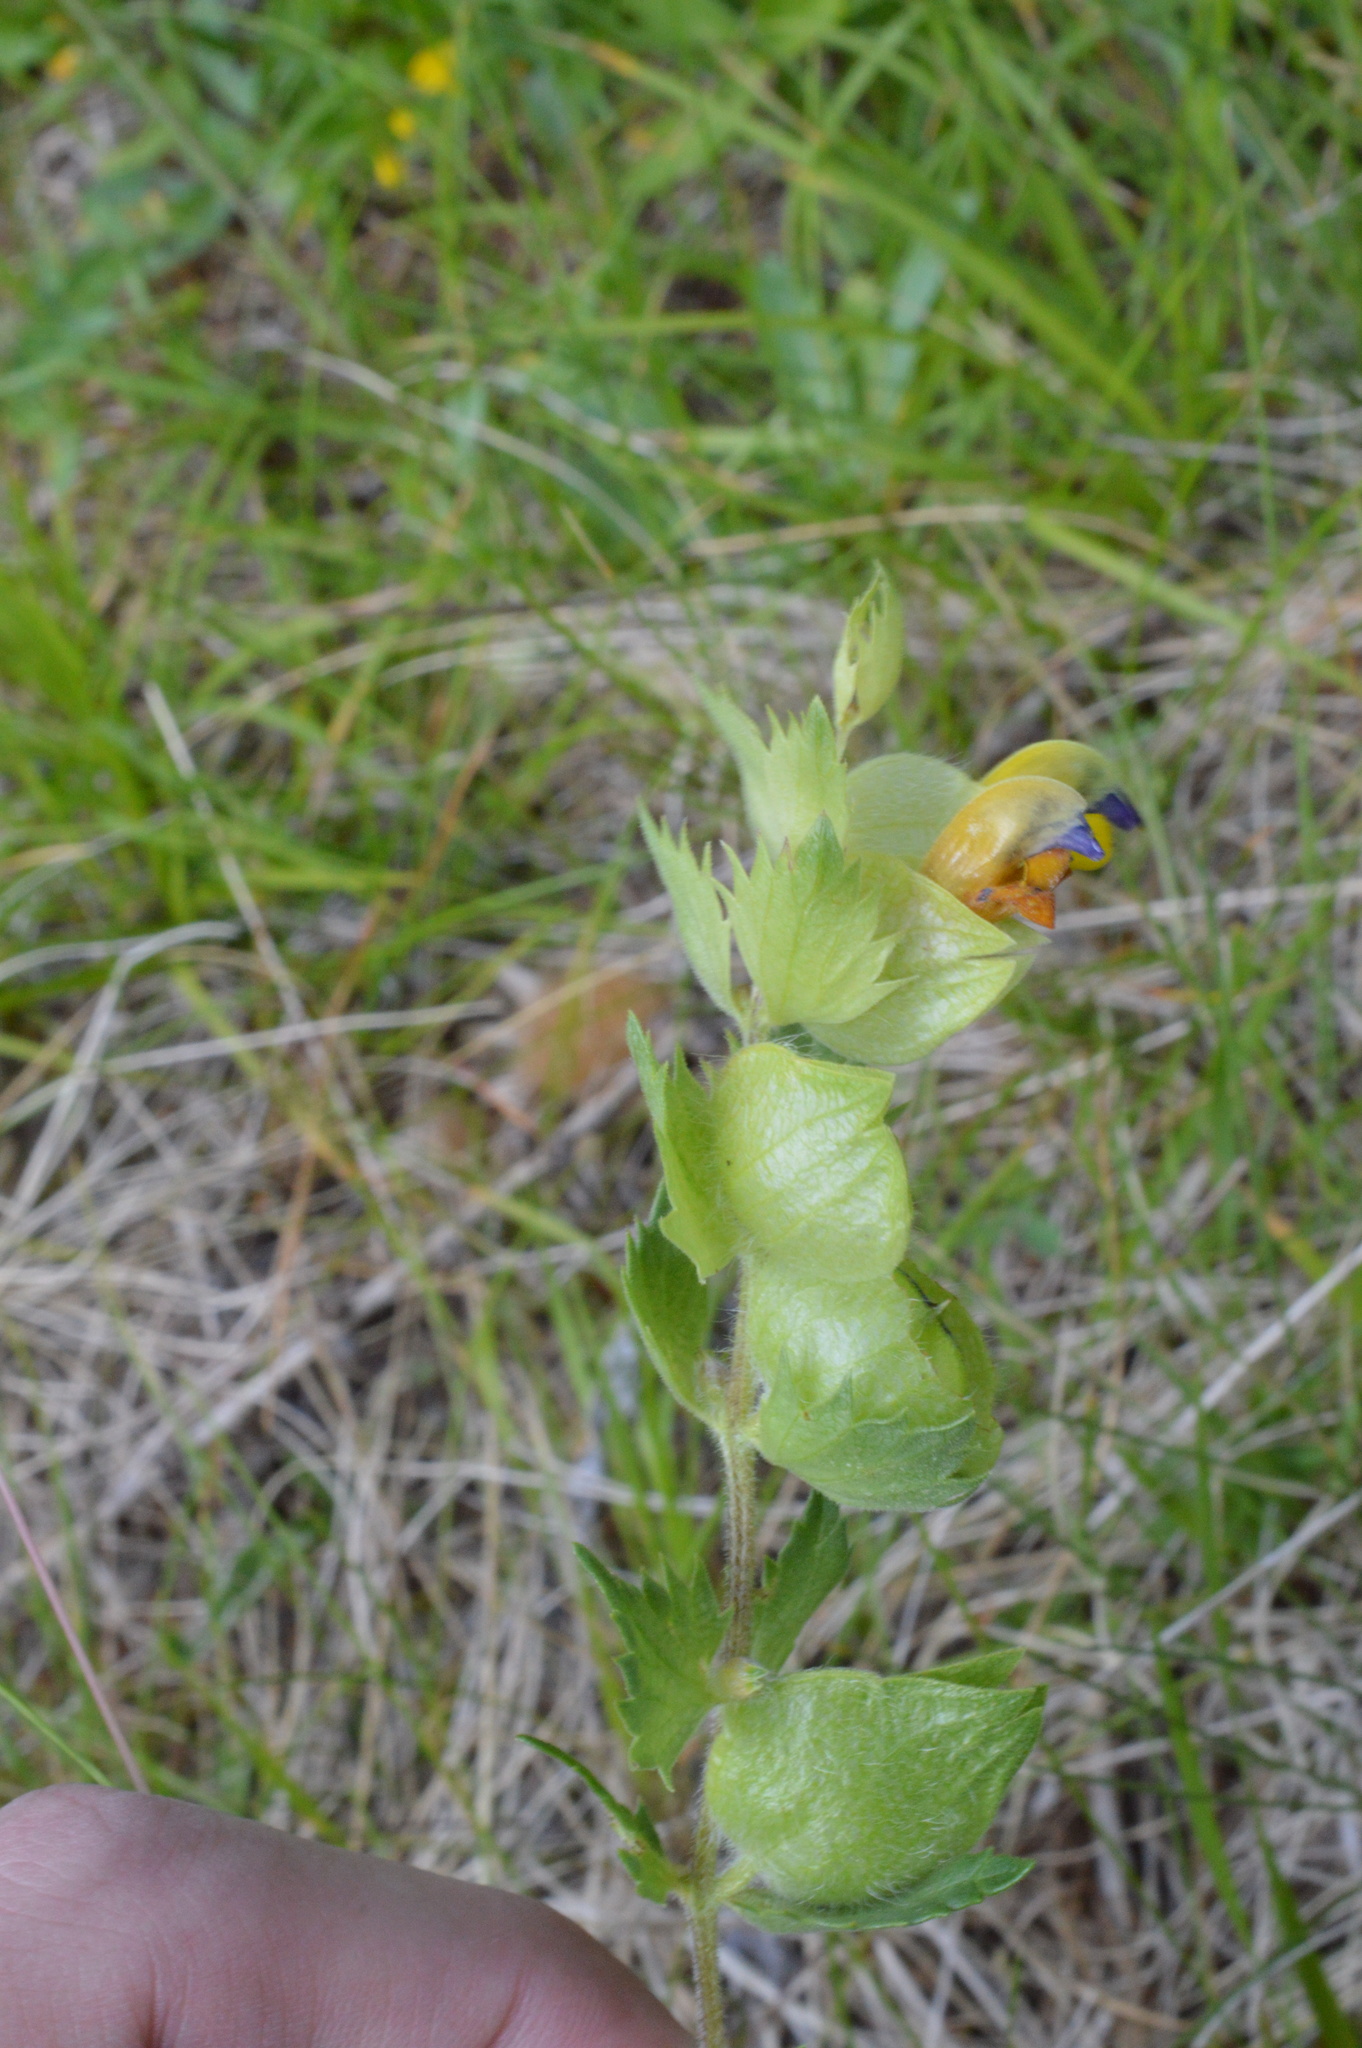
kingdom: Plantae
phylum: Tracheophyta
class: Magnoliopsida
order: Lamiales
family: Orobanchaceae
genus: Rhinanthus
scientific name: Rhinanthus alectorolophus
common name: Greater yellow-rattle
